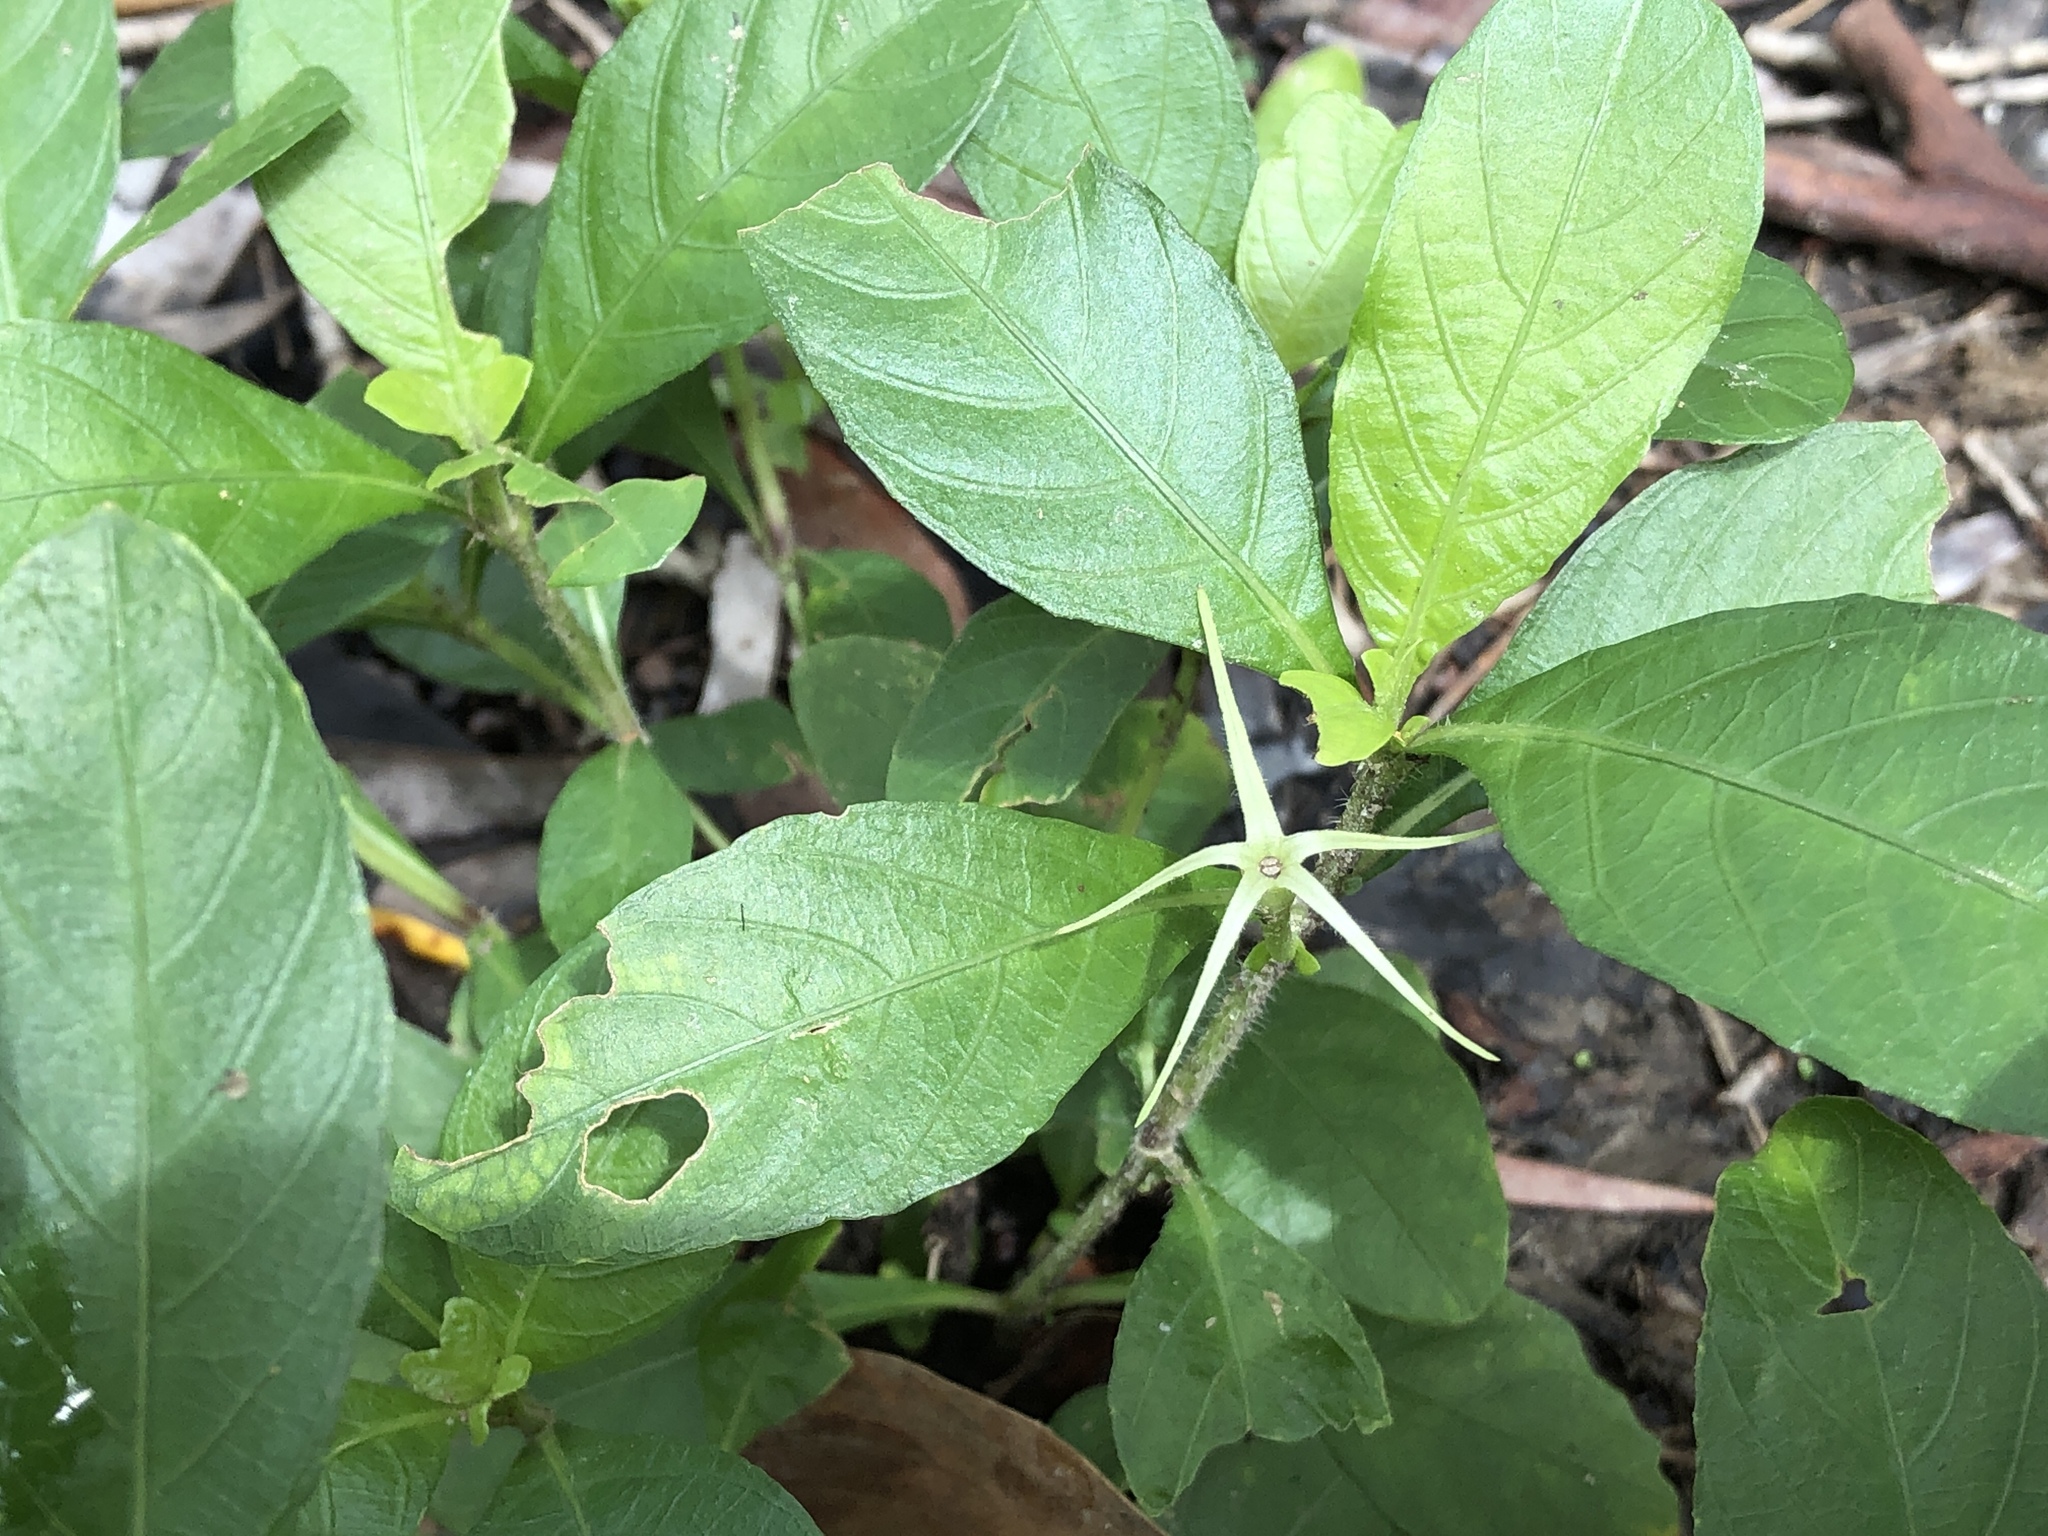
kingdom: Plantae
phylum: Tracheophyta
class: Magnoliopsida
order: Lamiales
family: Acanthaceae
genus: Ruellia
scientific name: Ruellia tuberosa
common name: Devil's bit
